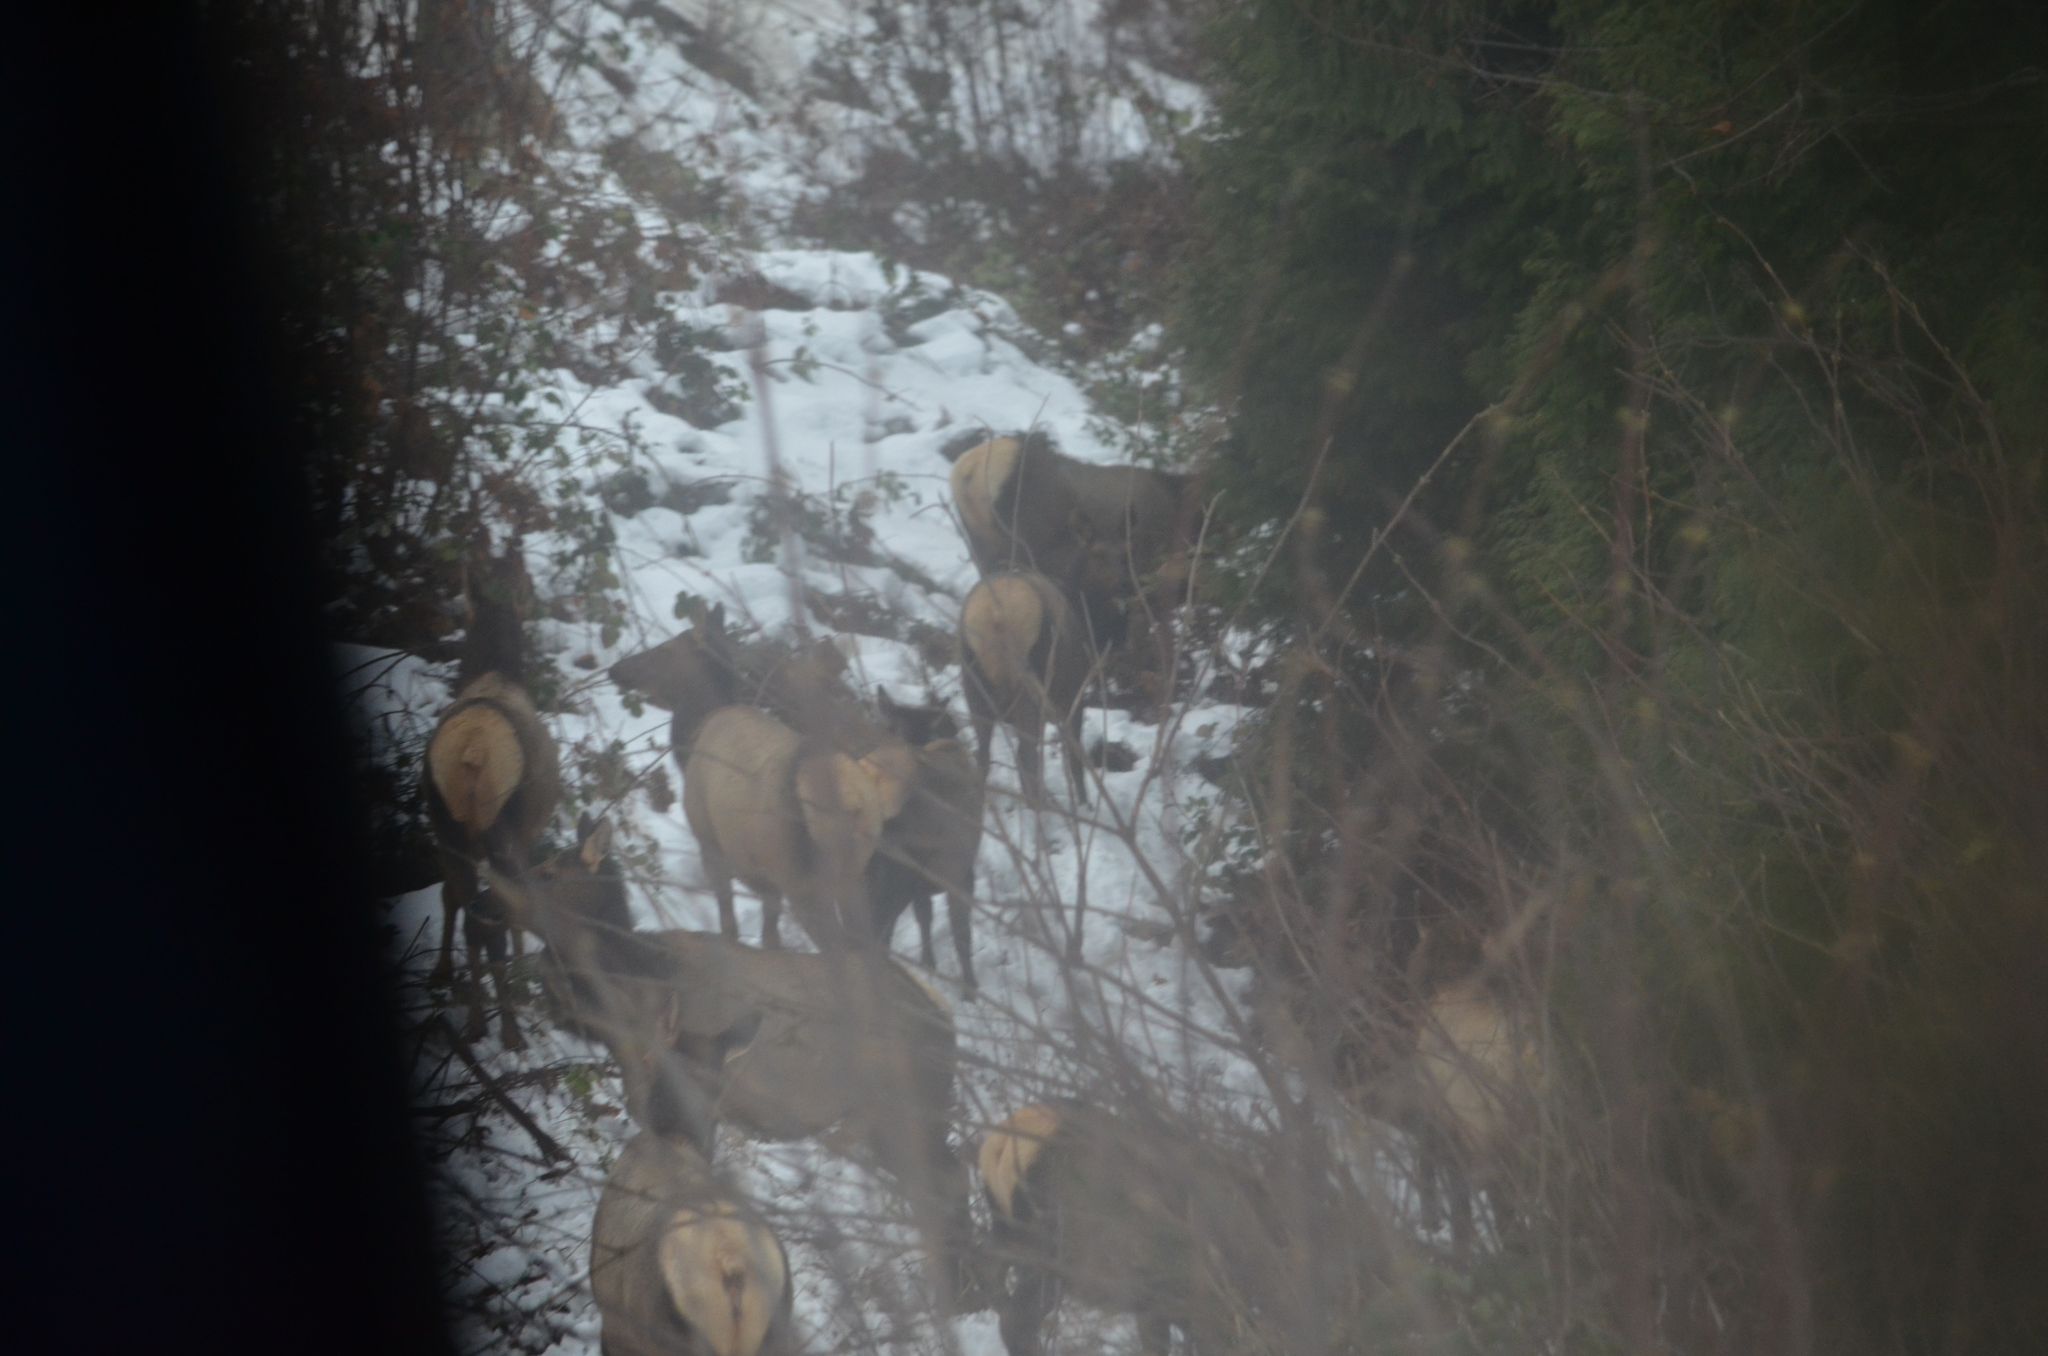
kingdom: Animalia
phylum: Chordata
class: Mammalia
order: Artiodactyla
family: Cervidae
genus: Cervus
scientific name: Cervus elaphus
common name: Red deer
